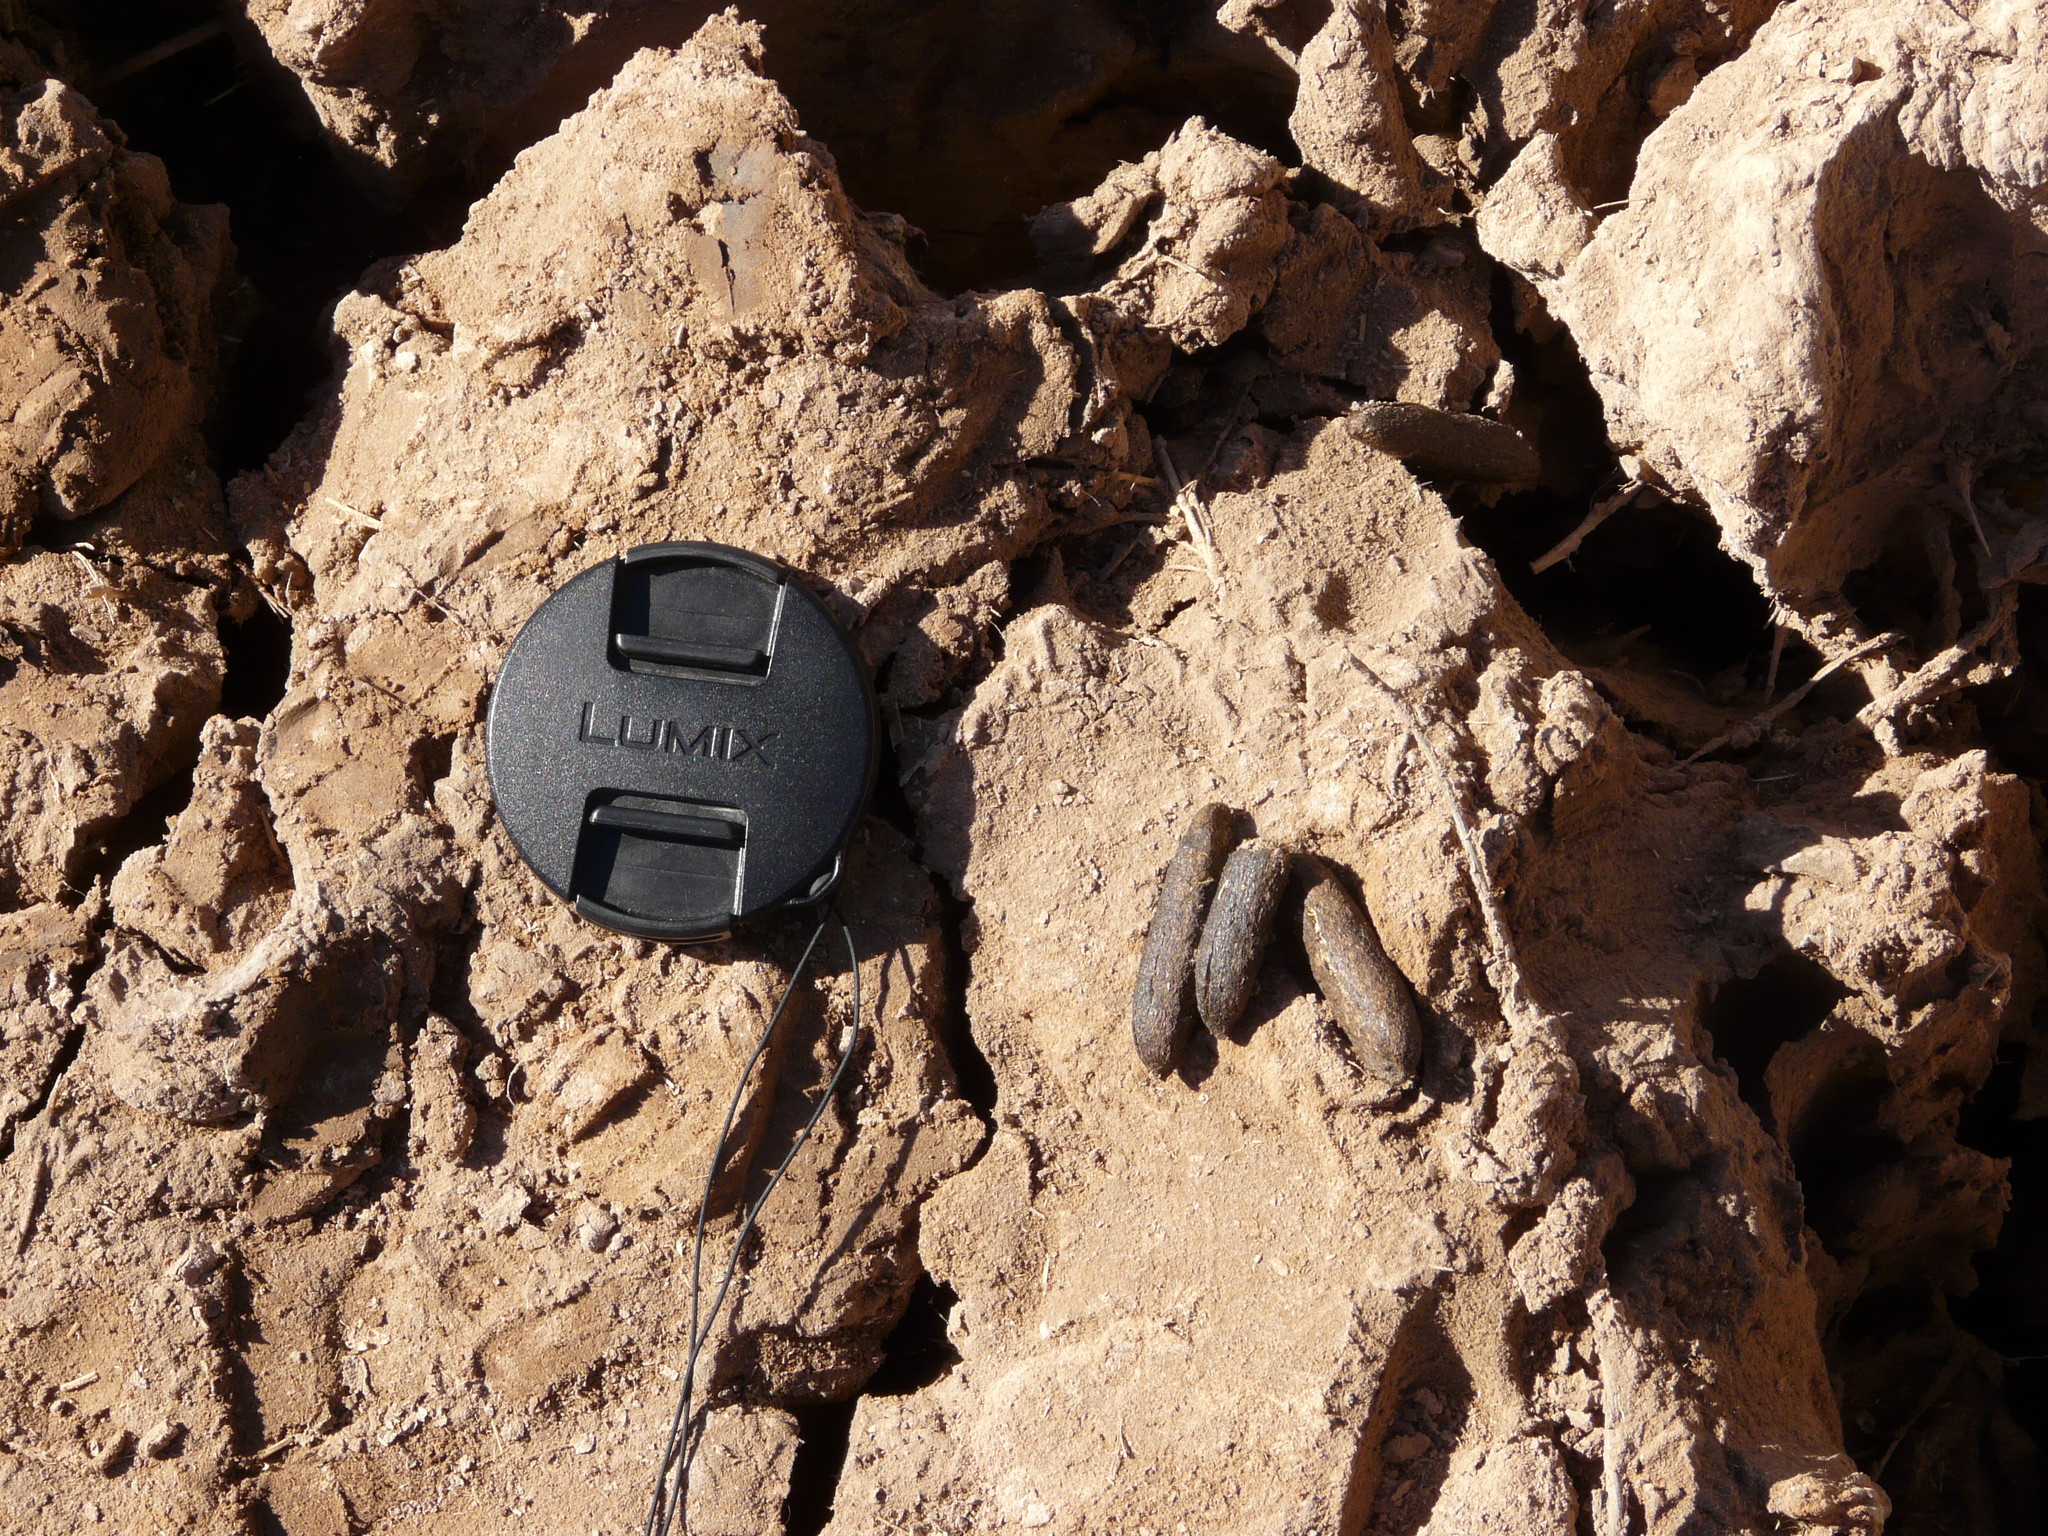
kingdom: Animalia
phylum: Chordata
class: Mammalia
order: Rodentia
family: Myocastoridae
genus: Myocastor
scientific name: Myocastor coypus
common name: Coypu
